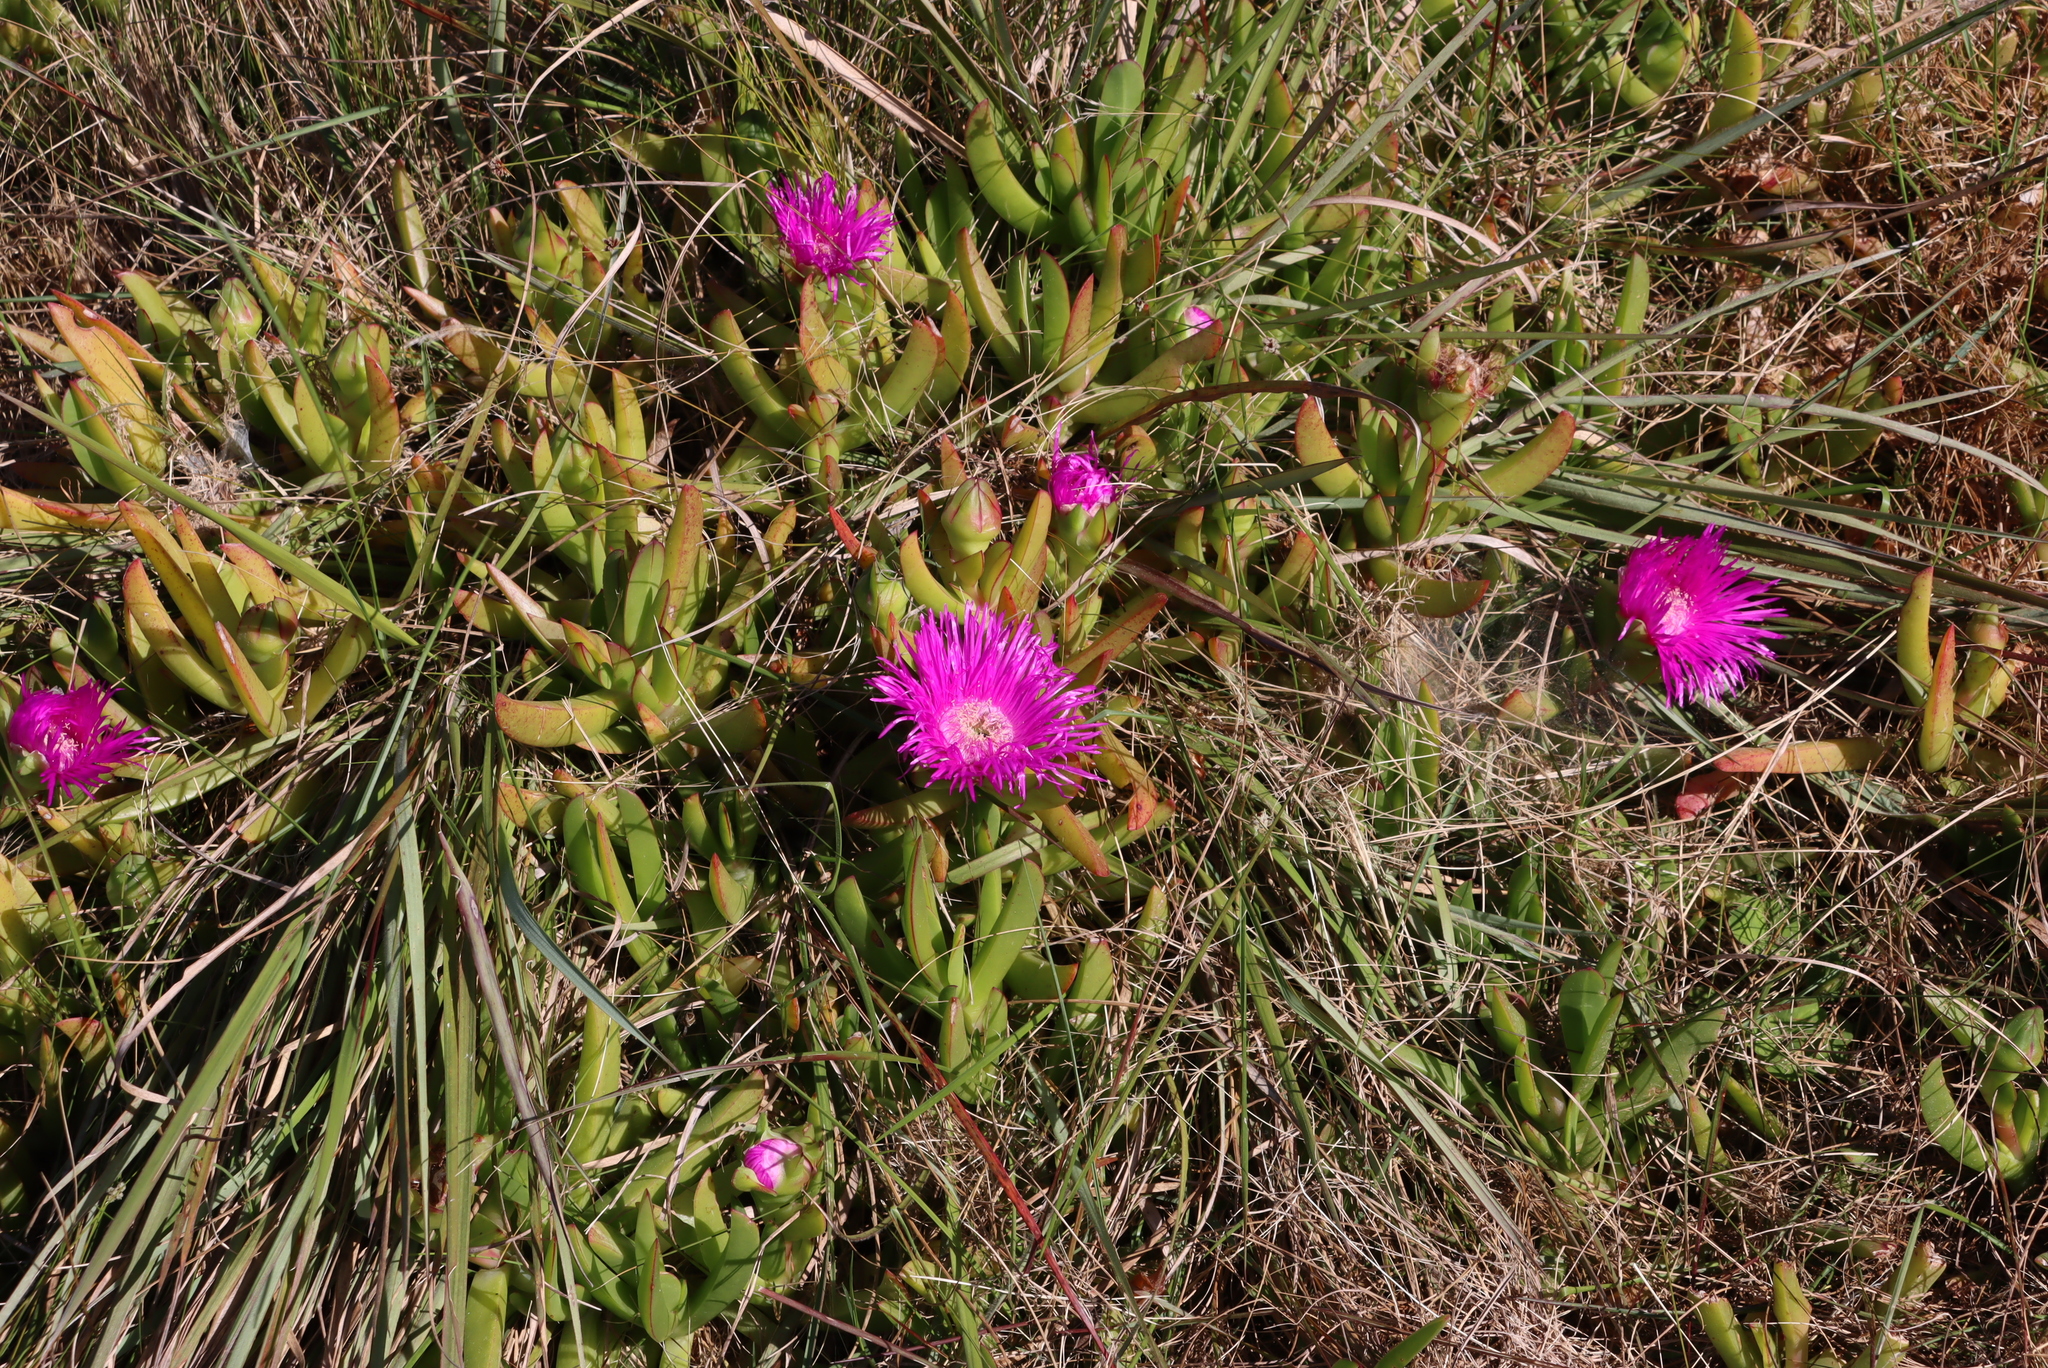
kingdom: Plantae
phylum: Tracheophyta
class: Magnoliopsida
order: Caryophyllales
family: Aizoaceae
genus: Carpobrotus
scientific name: Carpobrotus deliciosus
